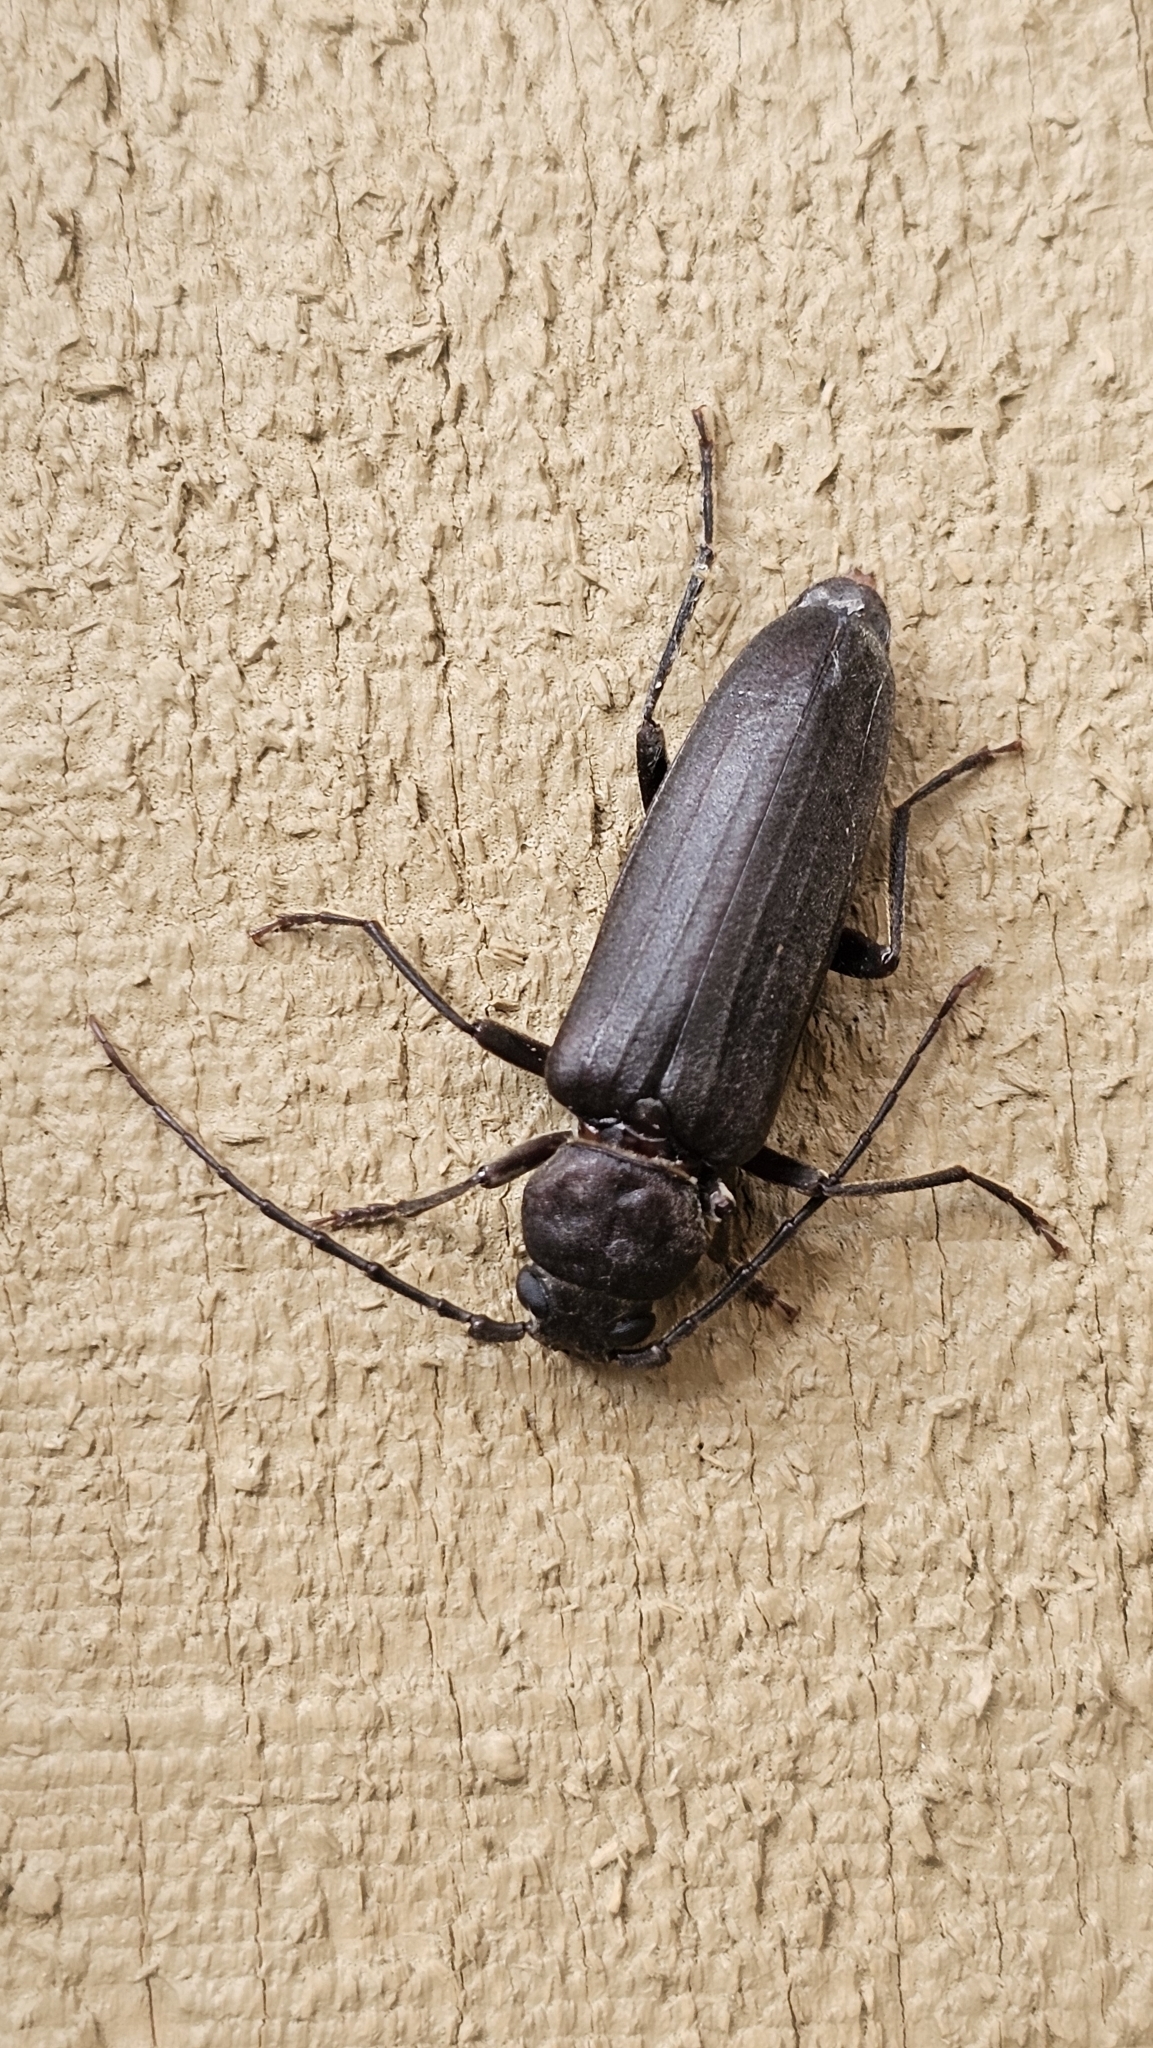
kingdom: Animalia
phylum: Arthropoda
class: Insecta
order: Coleoptera
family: Cerambycidae
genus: Arhopalus
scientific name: Arhopalus ferus
